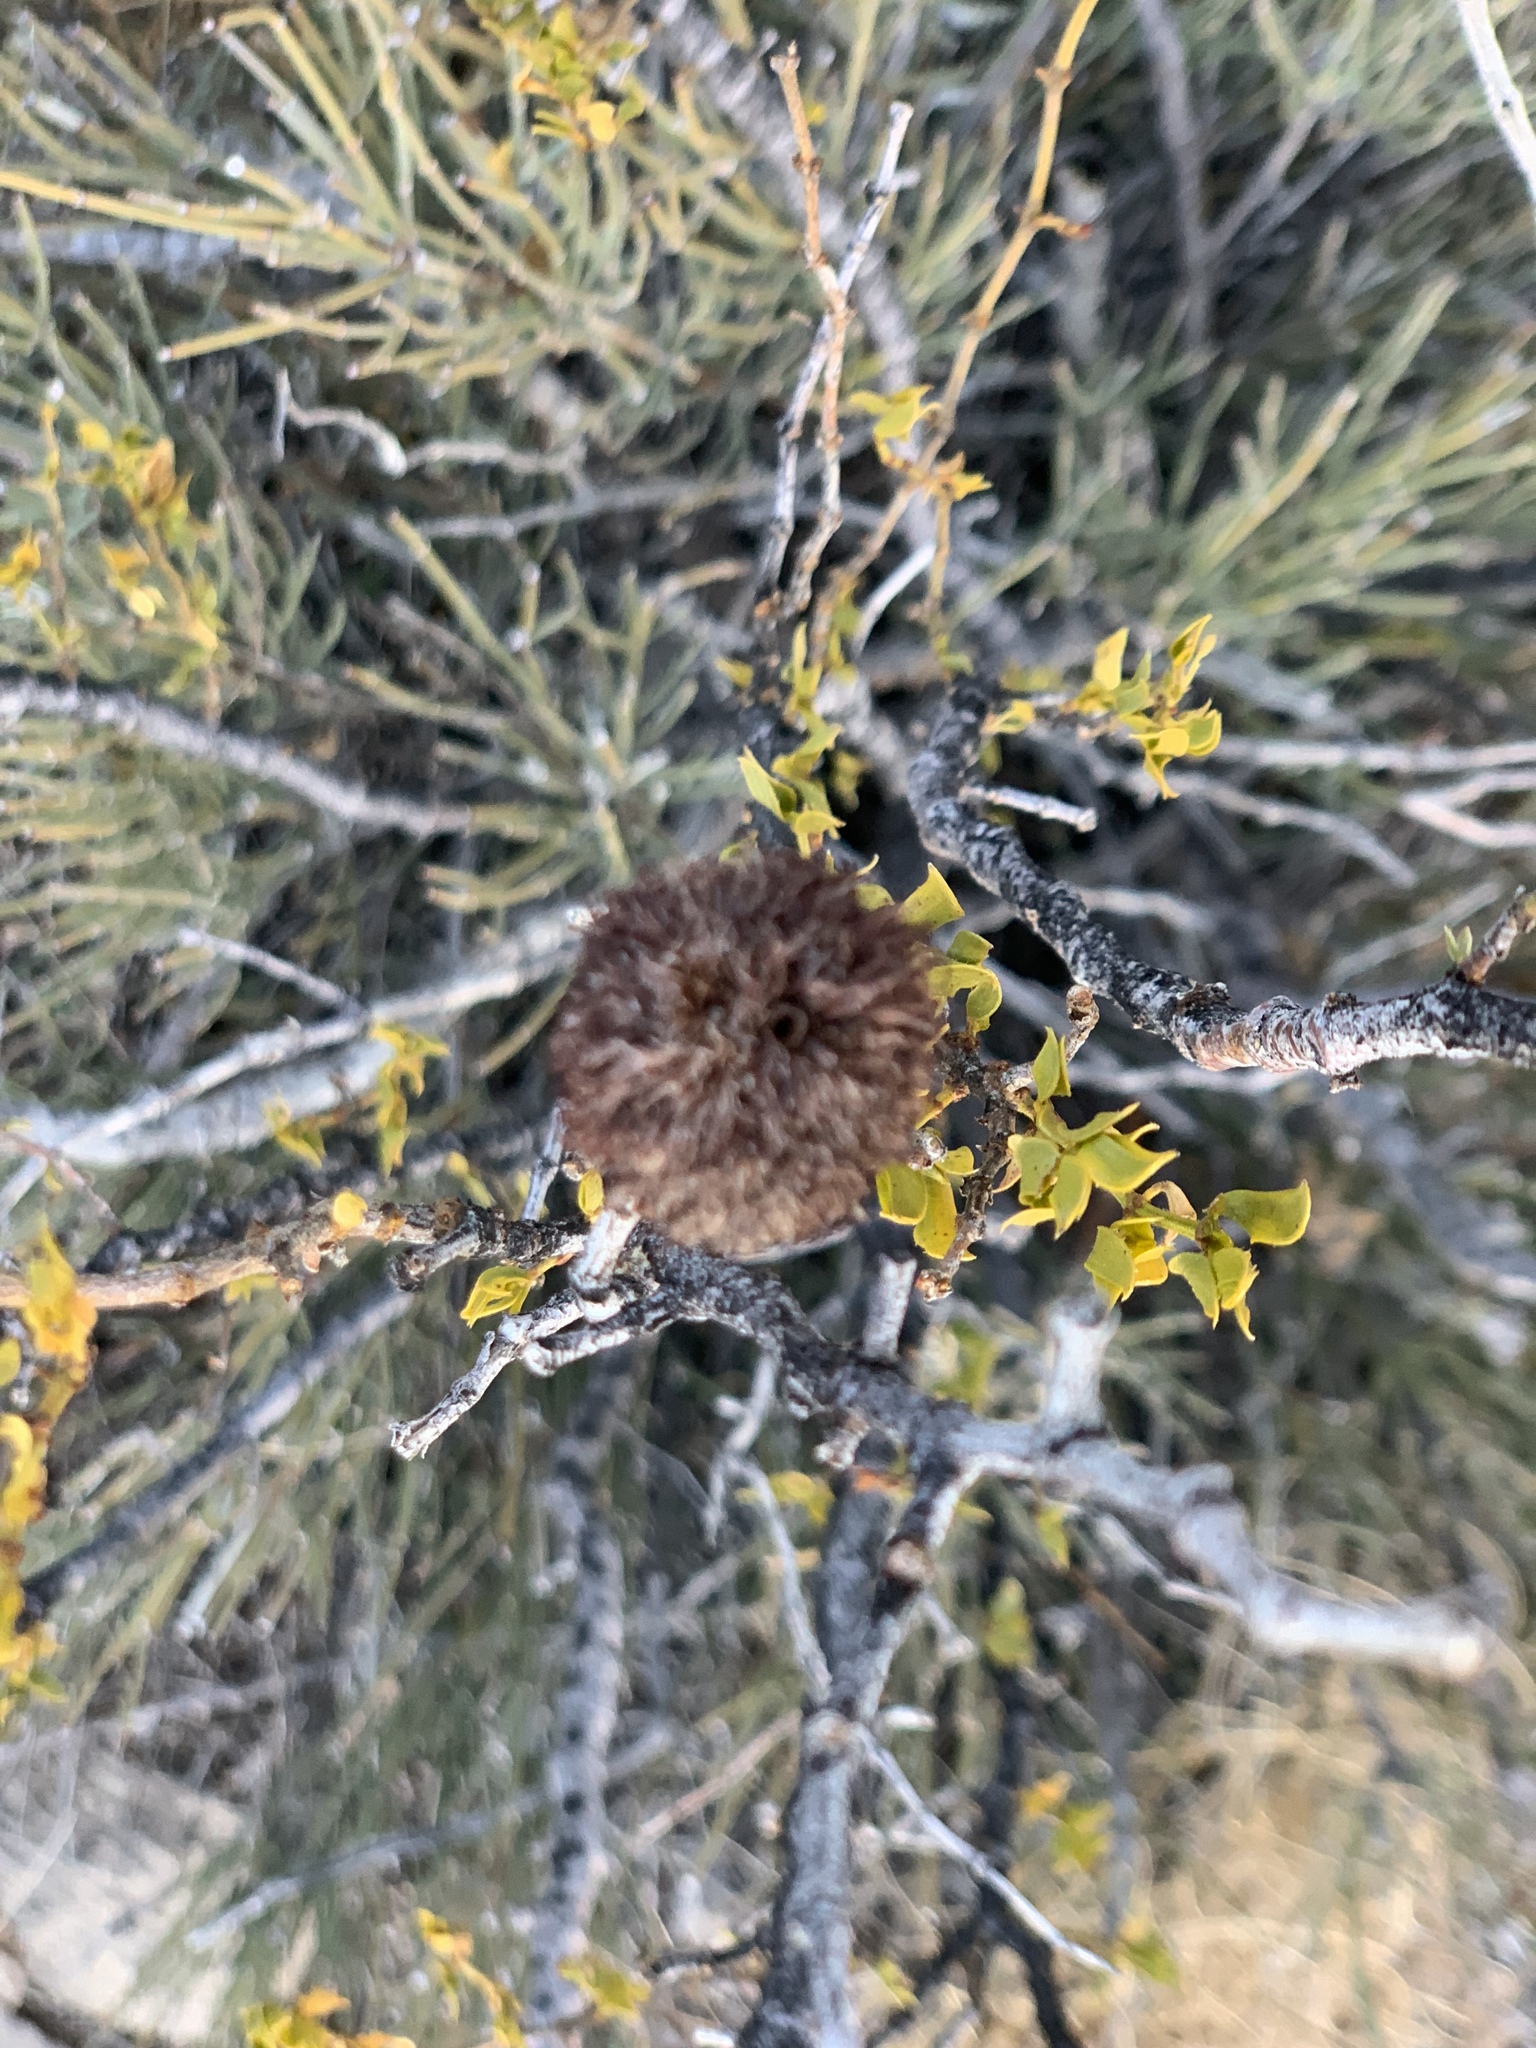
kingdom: Animalia
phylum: Arthropoda
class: Insecta
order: Diptera
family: Cecidomyiidae
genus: Asphondylia
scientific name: Asphondylia auripila
